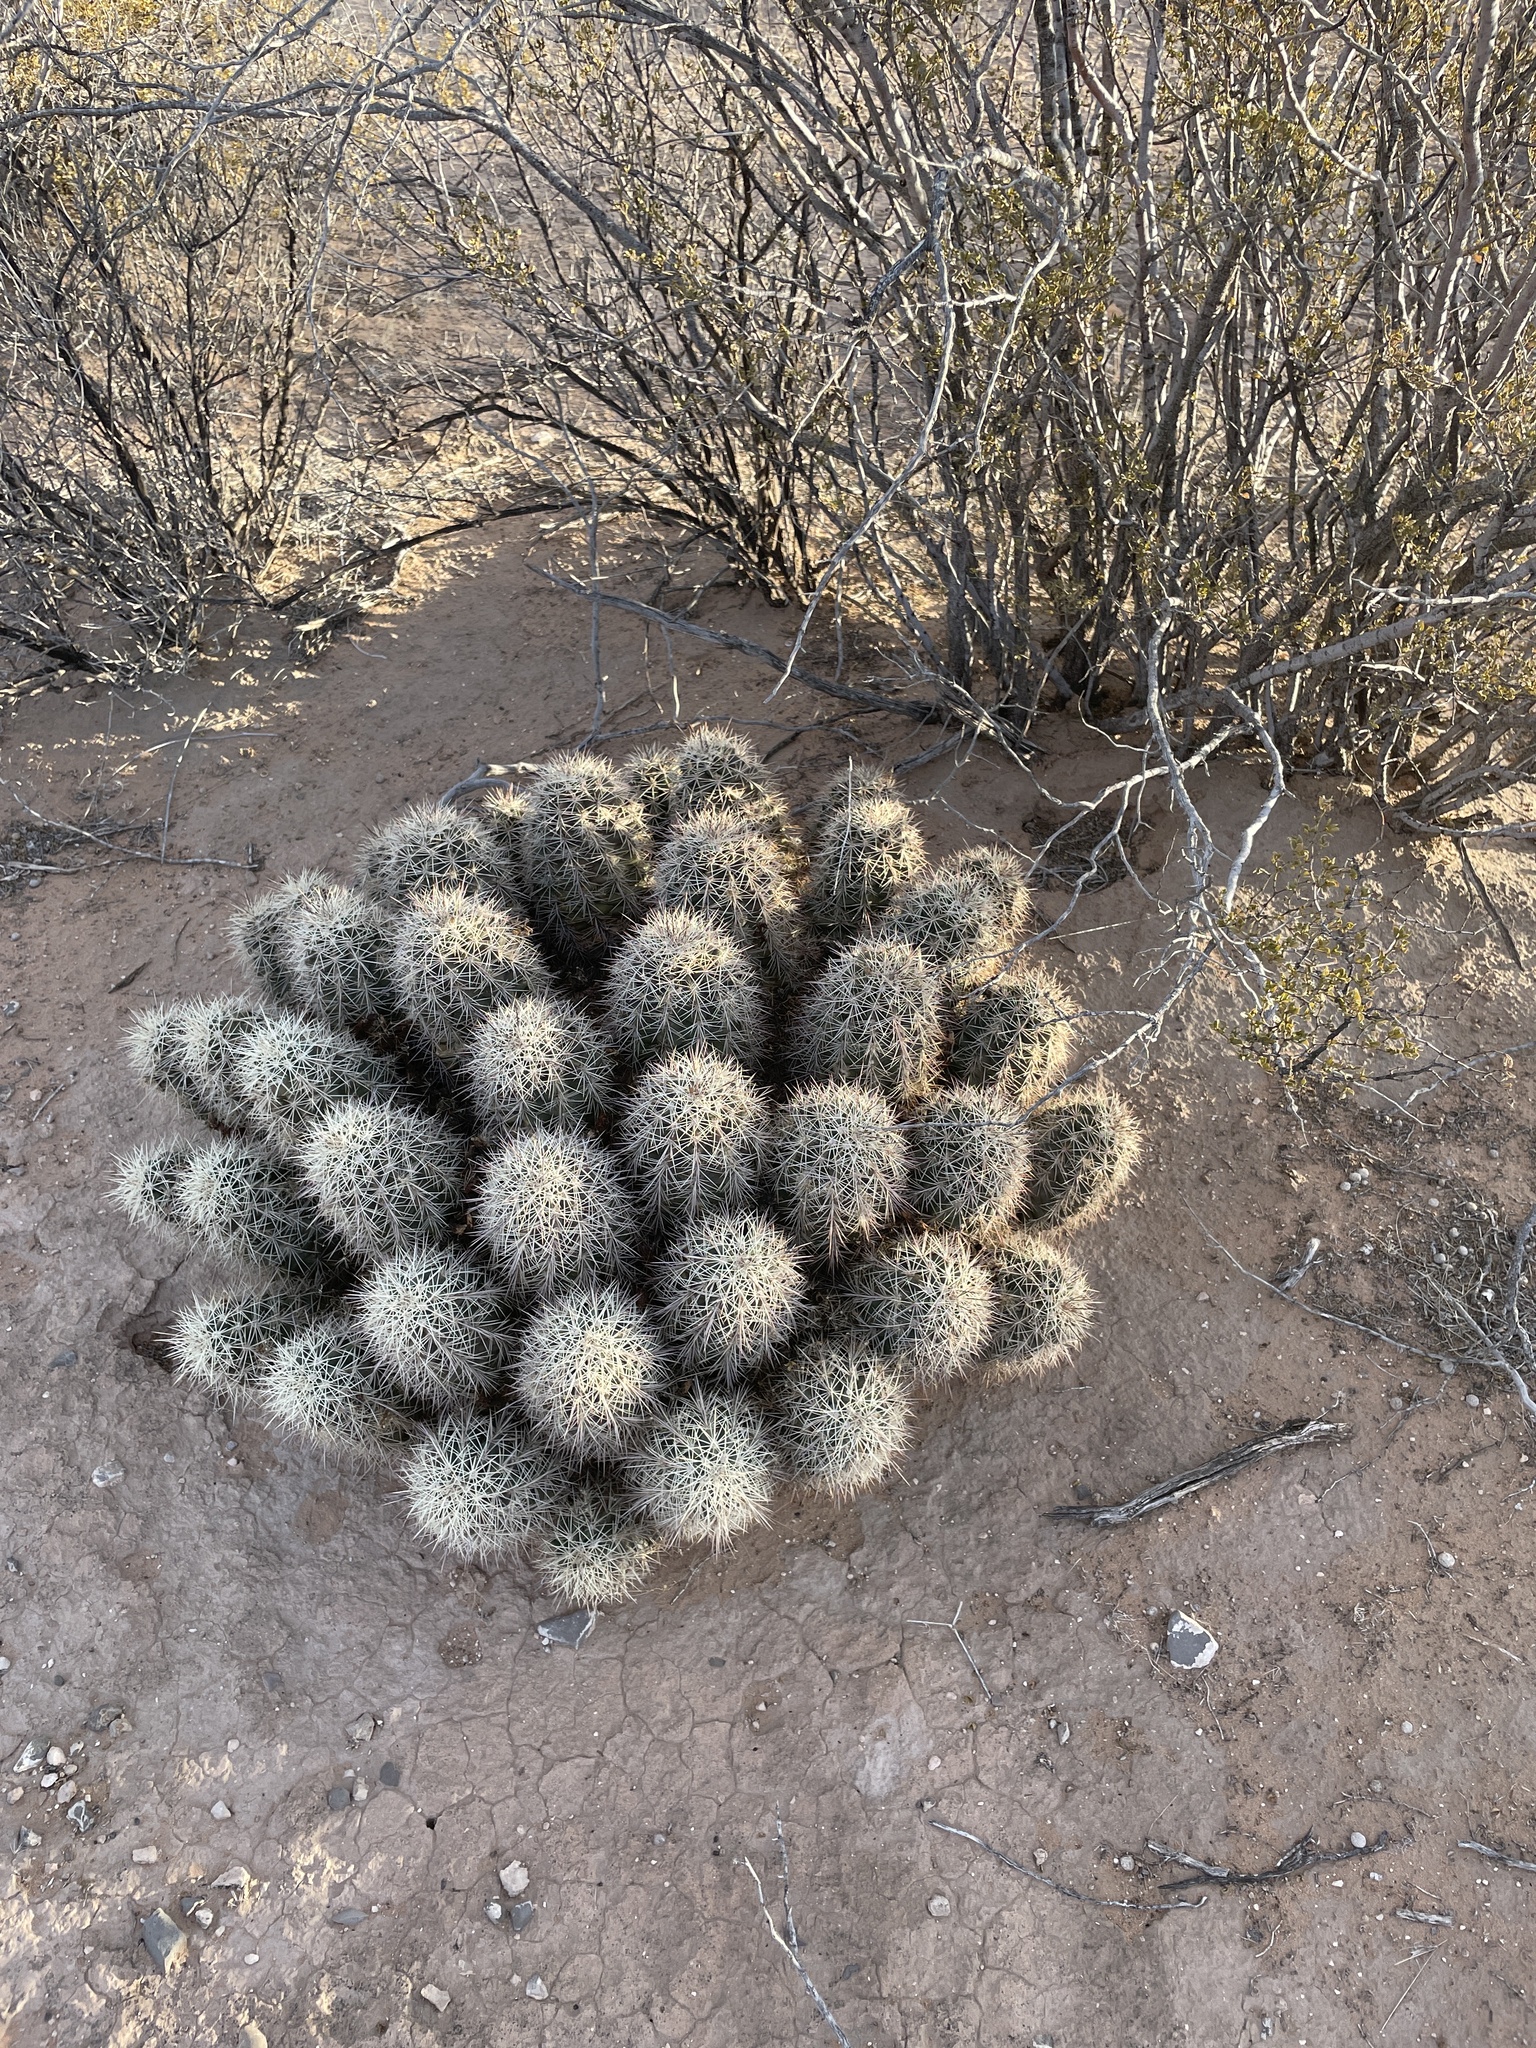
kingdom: Plantae
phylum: Tracheophyta
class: Magnoliopsida
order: Caryophyllales
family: Cactaceae
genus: Echinocereus
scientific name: Echinocereus coccineus
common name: Scarlet hedgehog cactus
